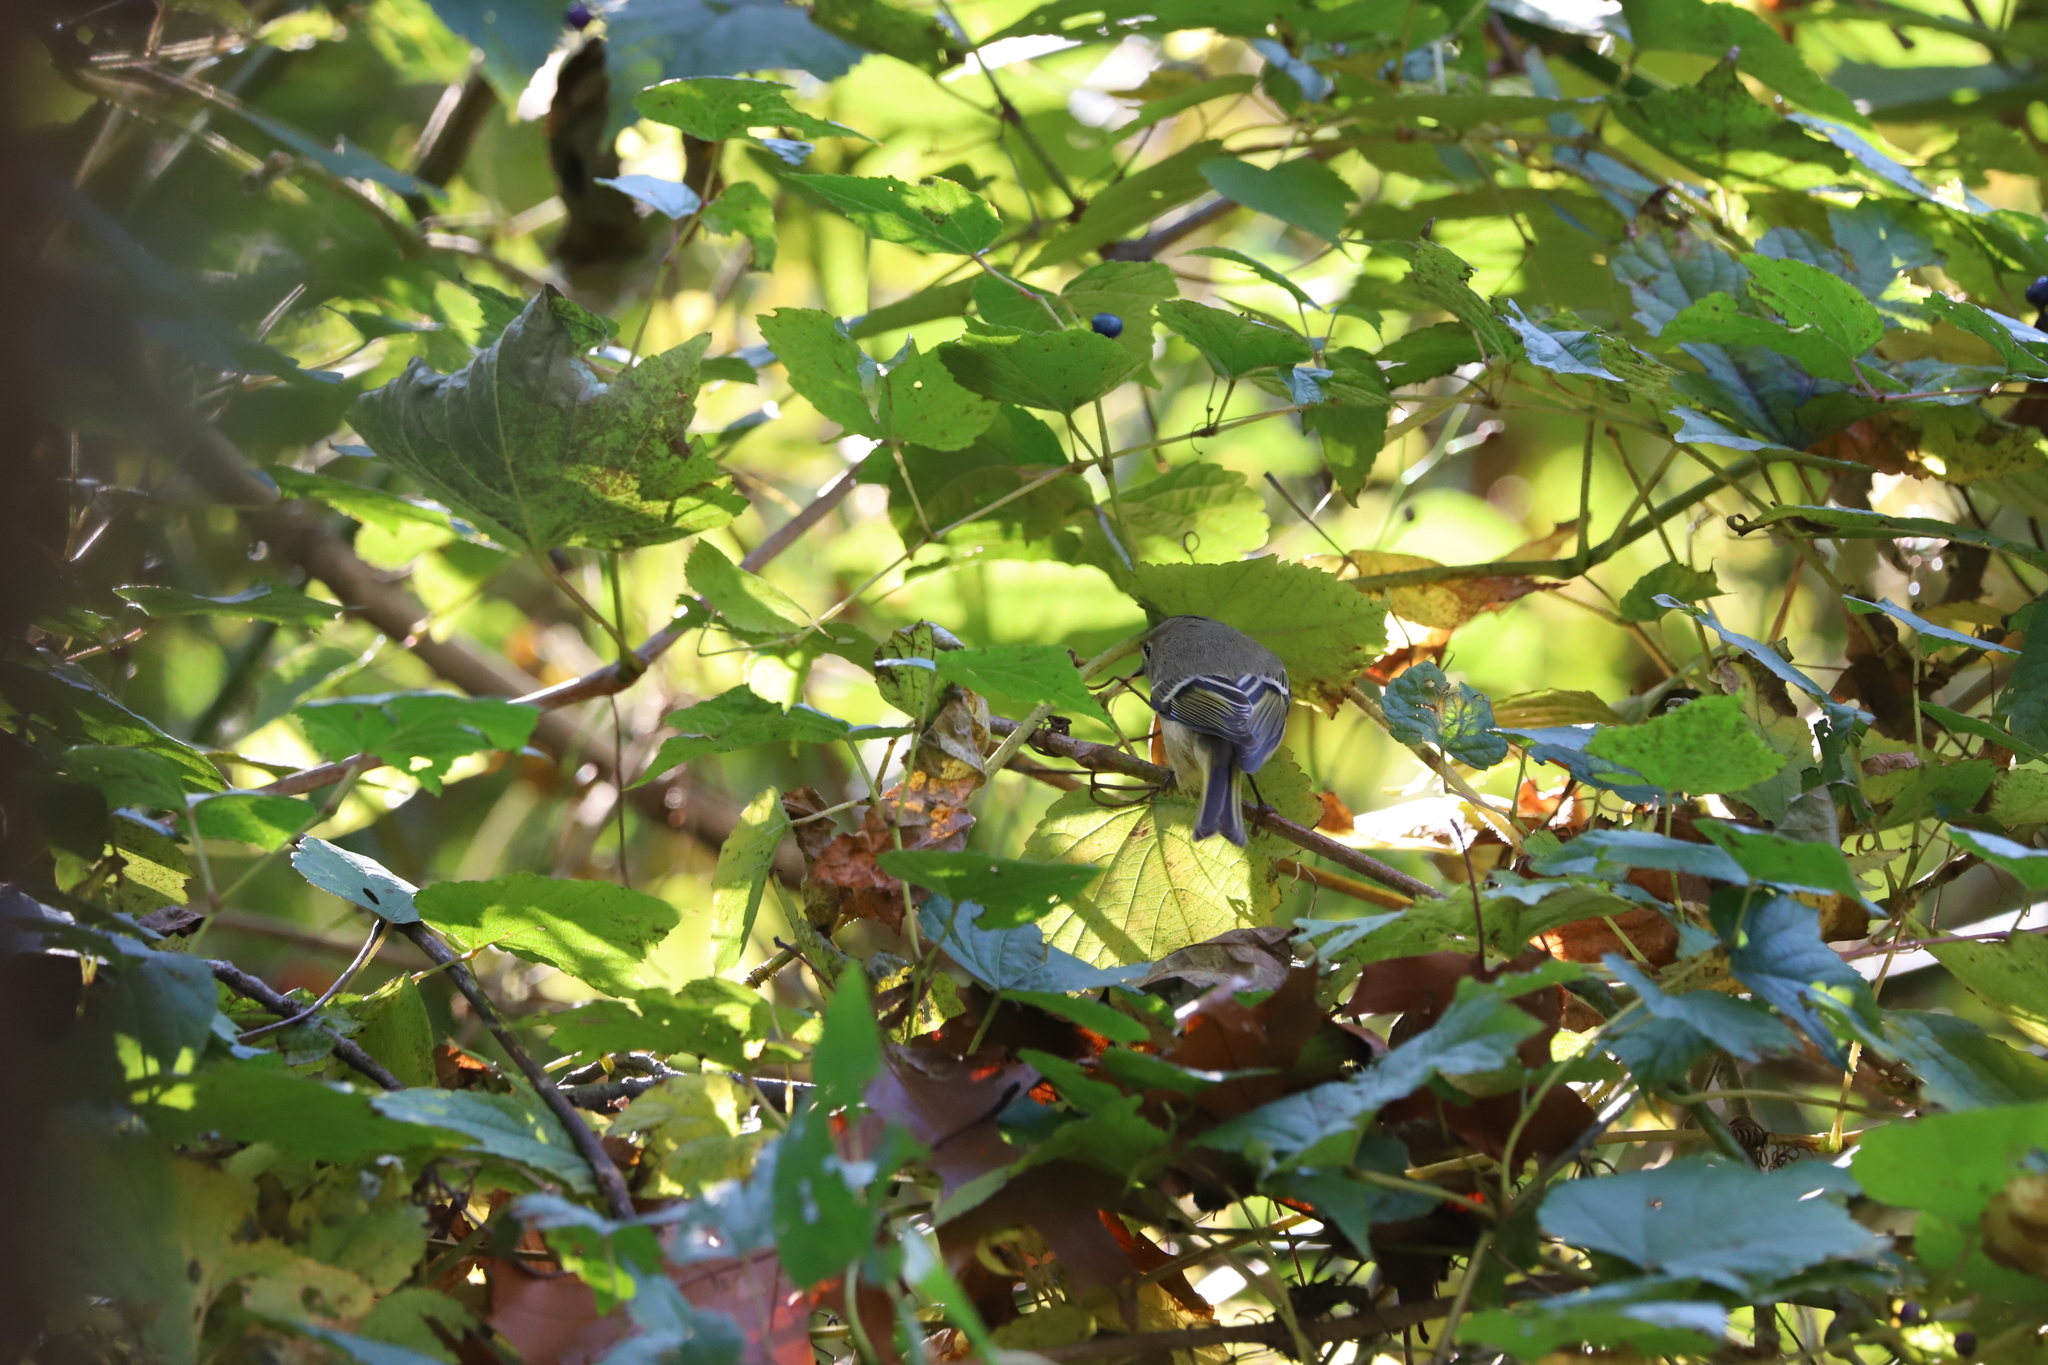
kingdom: Animalia
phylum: Chordata
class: Aves
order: Passeriformes
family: Regulidae
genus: Regulus
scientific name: Regulus calendula
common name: Ruby-crowned kinglet
